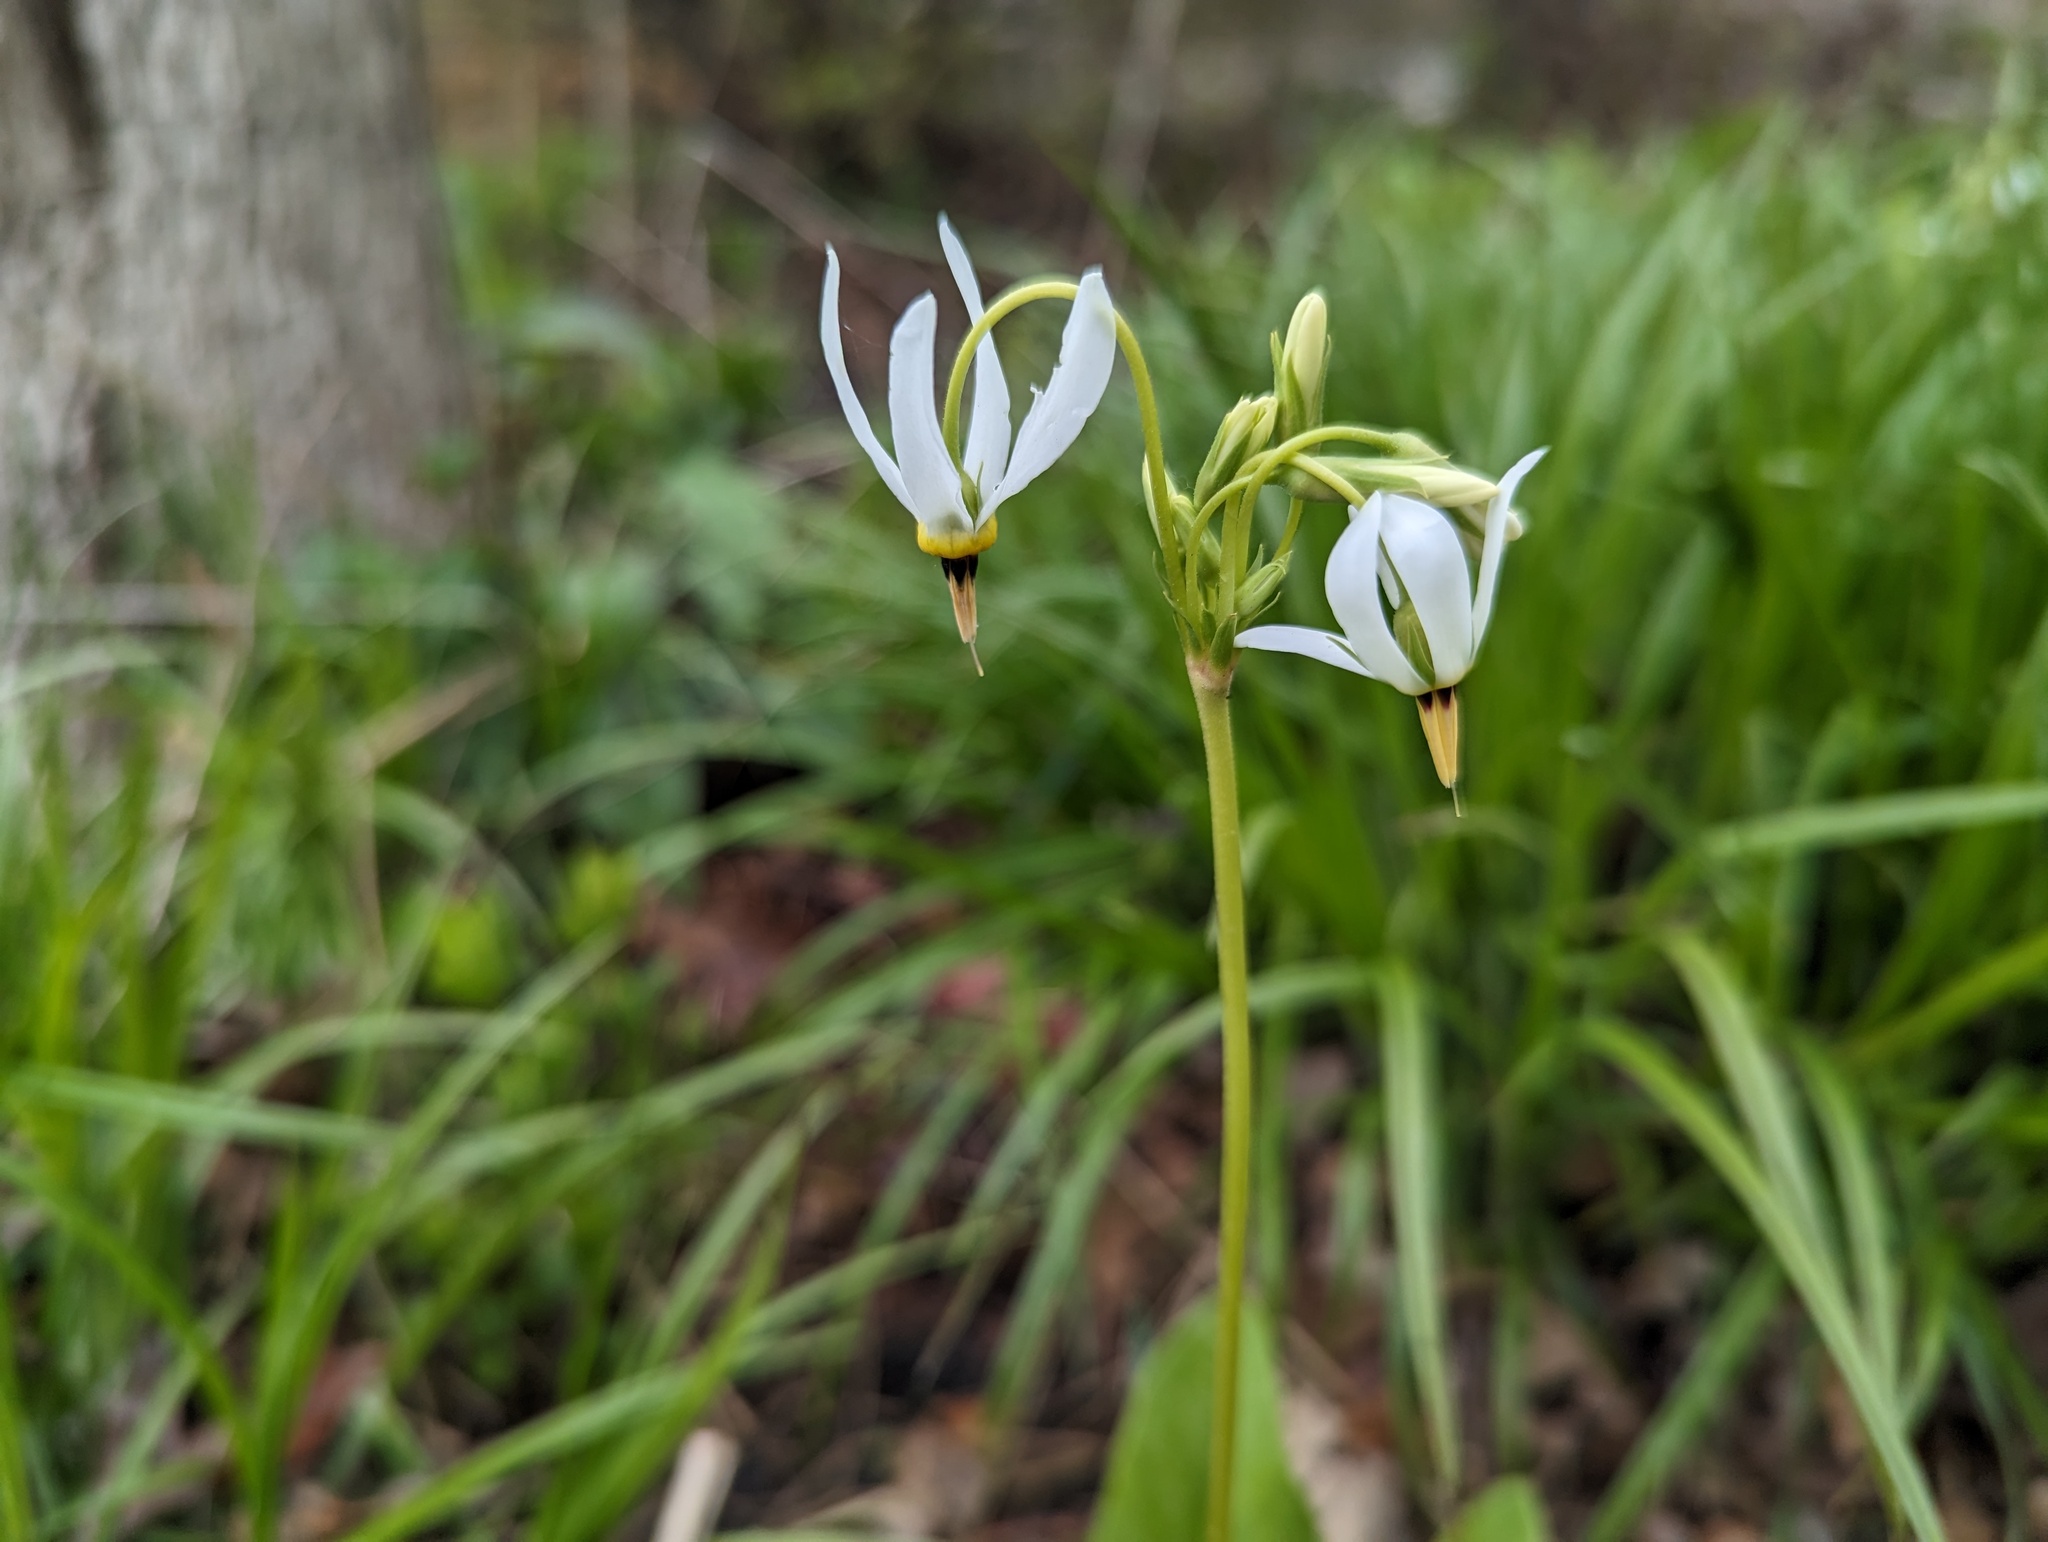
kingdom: Plantae
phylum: Tracheophyta
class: Magnoliopsida
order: Ericales
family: Primulaceae
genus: Dodecatheon
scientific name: Dodecatheon meadia
